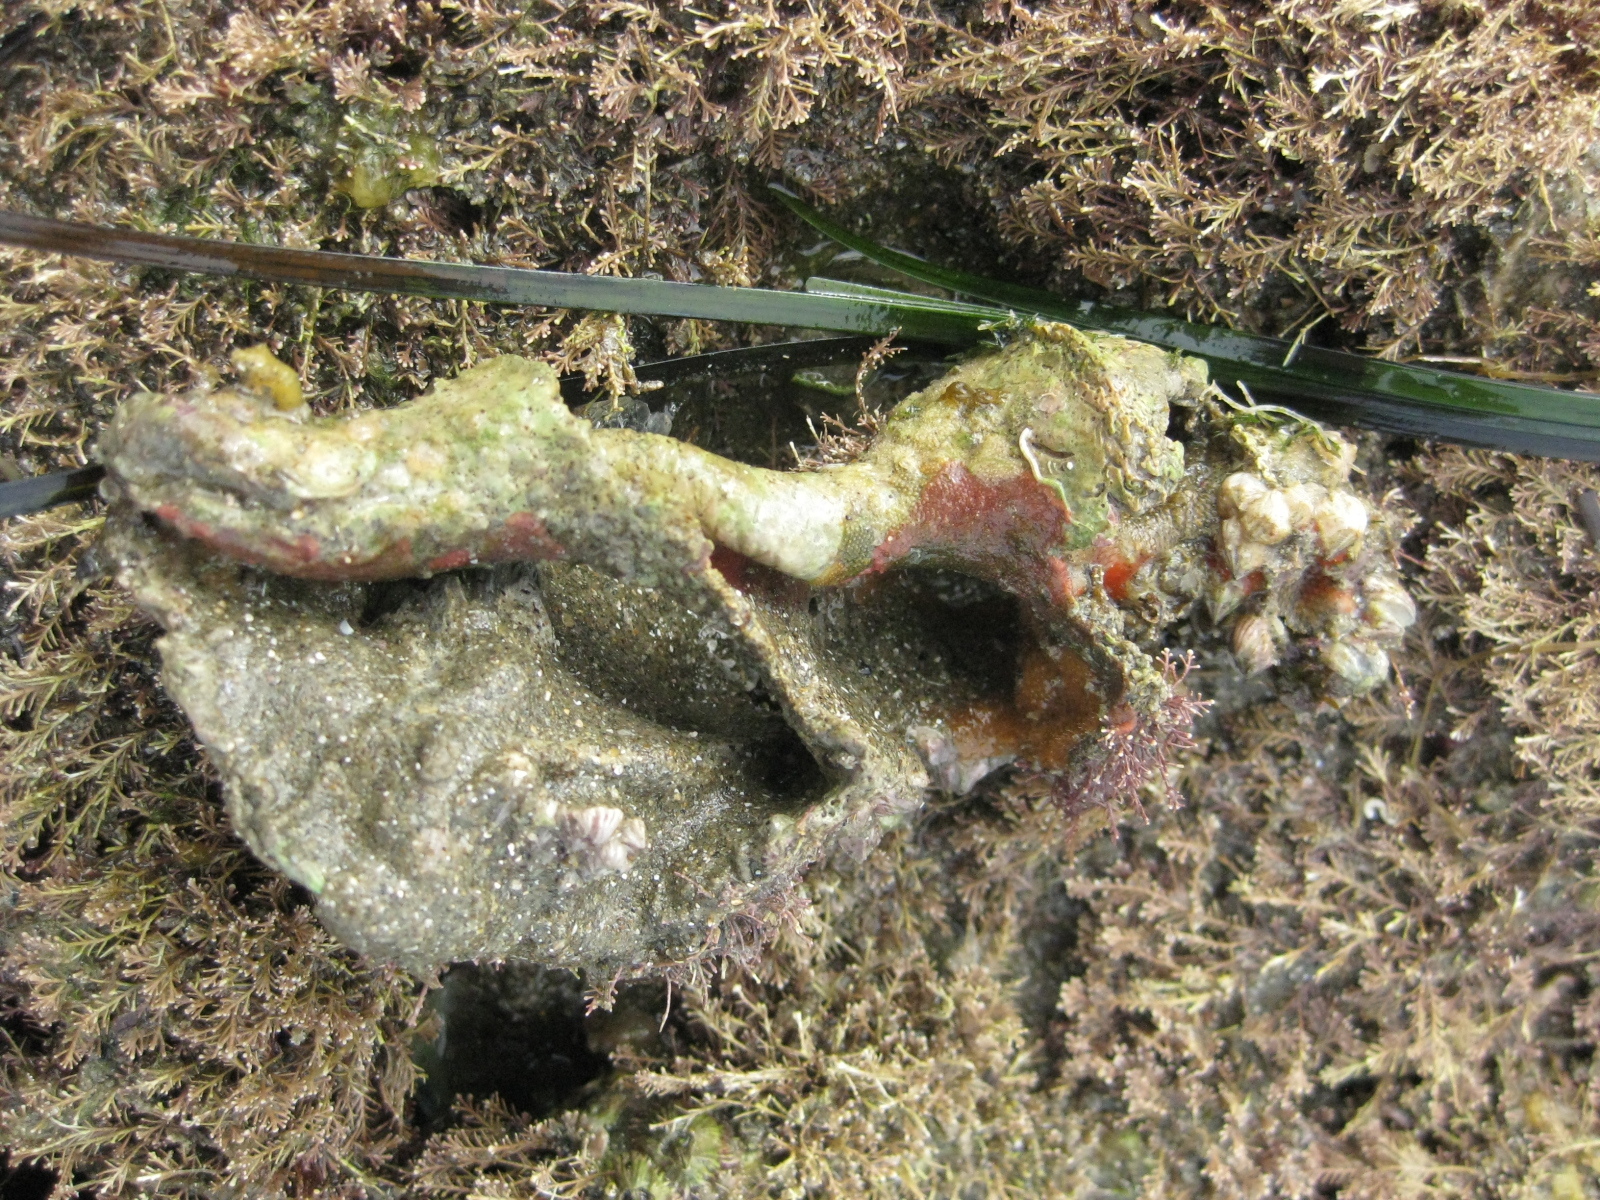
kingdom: Animalia
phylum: Mollusca
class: Gastropoda
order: Neogastropoda
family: Austrosiphonidae
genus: Penion
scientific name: Penion sulcatus
